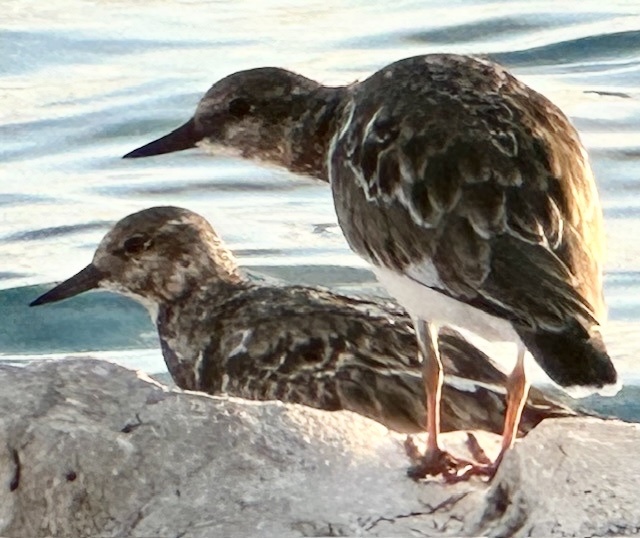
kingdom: Animalia
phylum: Chordata
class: Aves
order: Charadriiformes
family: Scolopacidae
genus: Arenaria
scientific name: Arenaria interpres
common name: Ruddy turnstone
